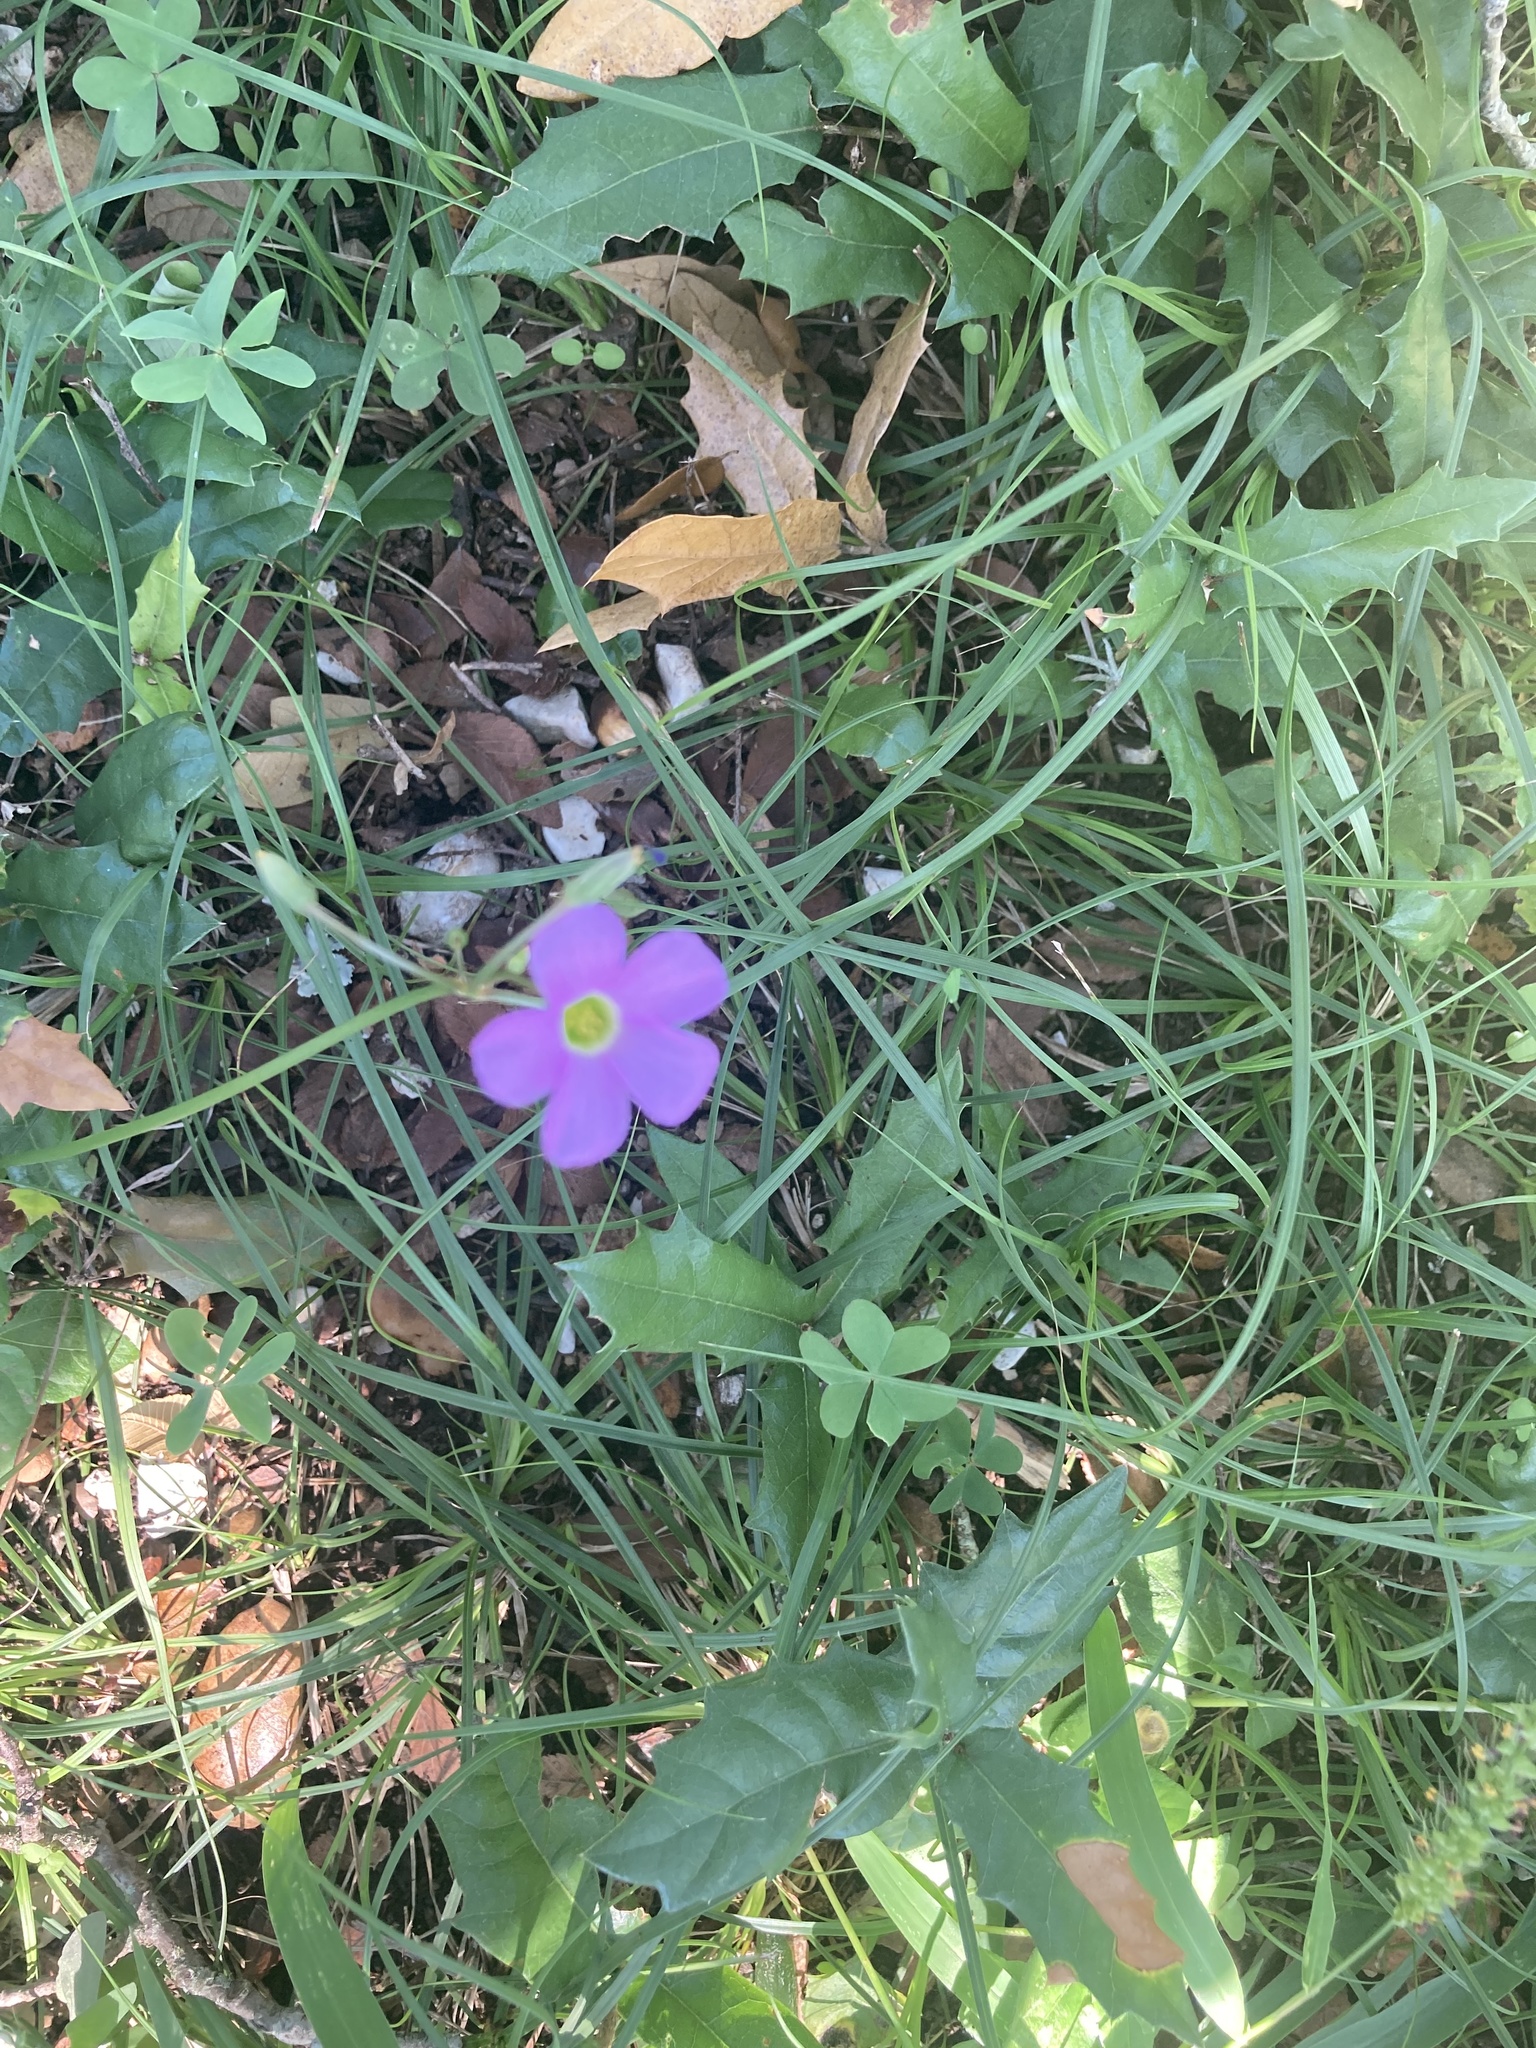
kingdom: Plantae
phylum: Tracheophyta
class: Magnoliopsida
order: Oxalidales
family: Oxalidaceae
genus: Oxalis
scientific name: Oxalis drummondii
